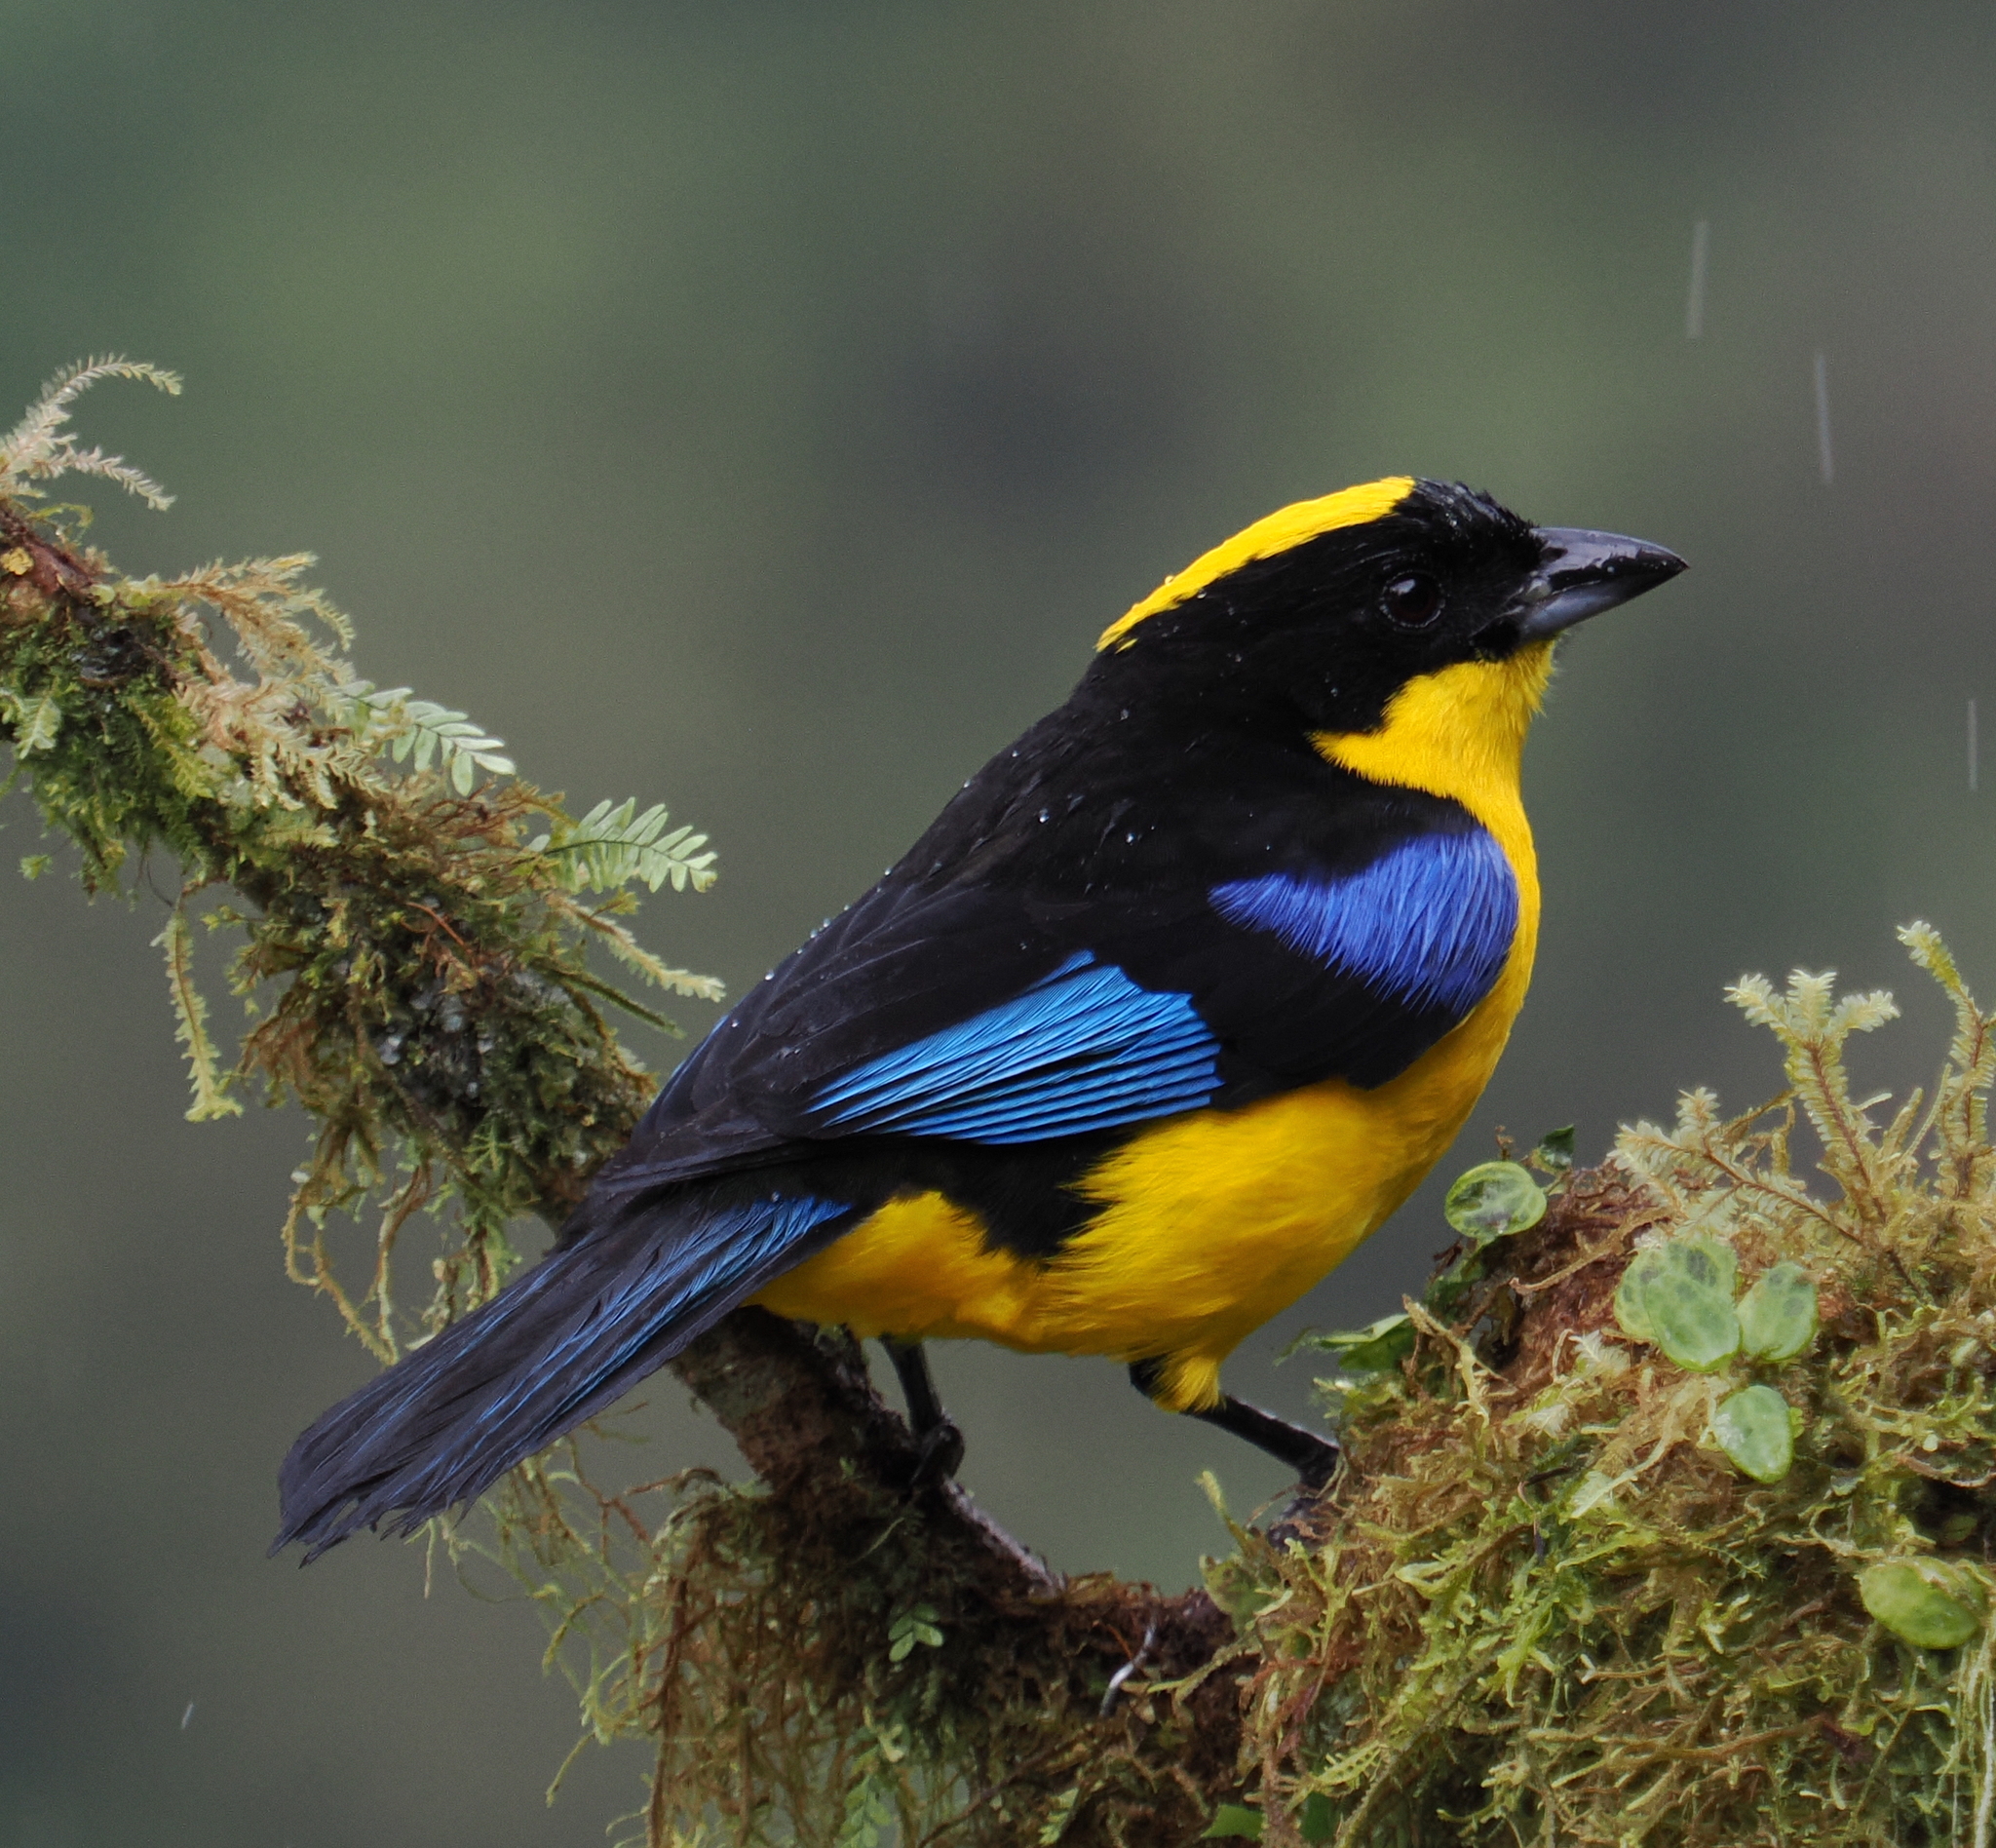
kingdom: Animalia
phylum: Chordata
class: Aves
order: Passeriformes
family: Thraupidae
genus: Anisognathus
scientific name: Anisognathus somptuosus
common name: Blue-winged mountain-tanager
